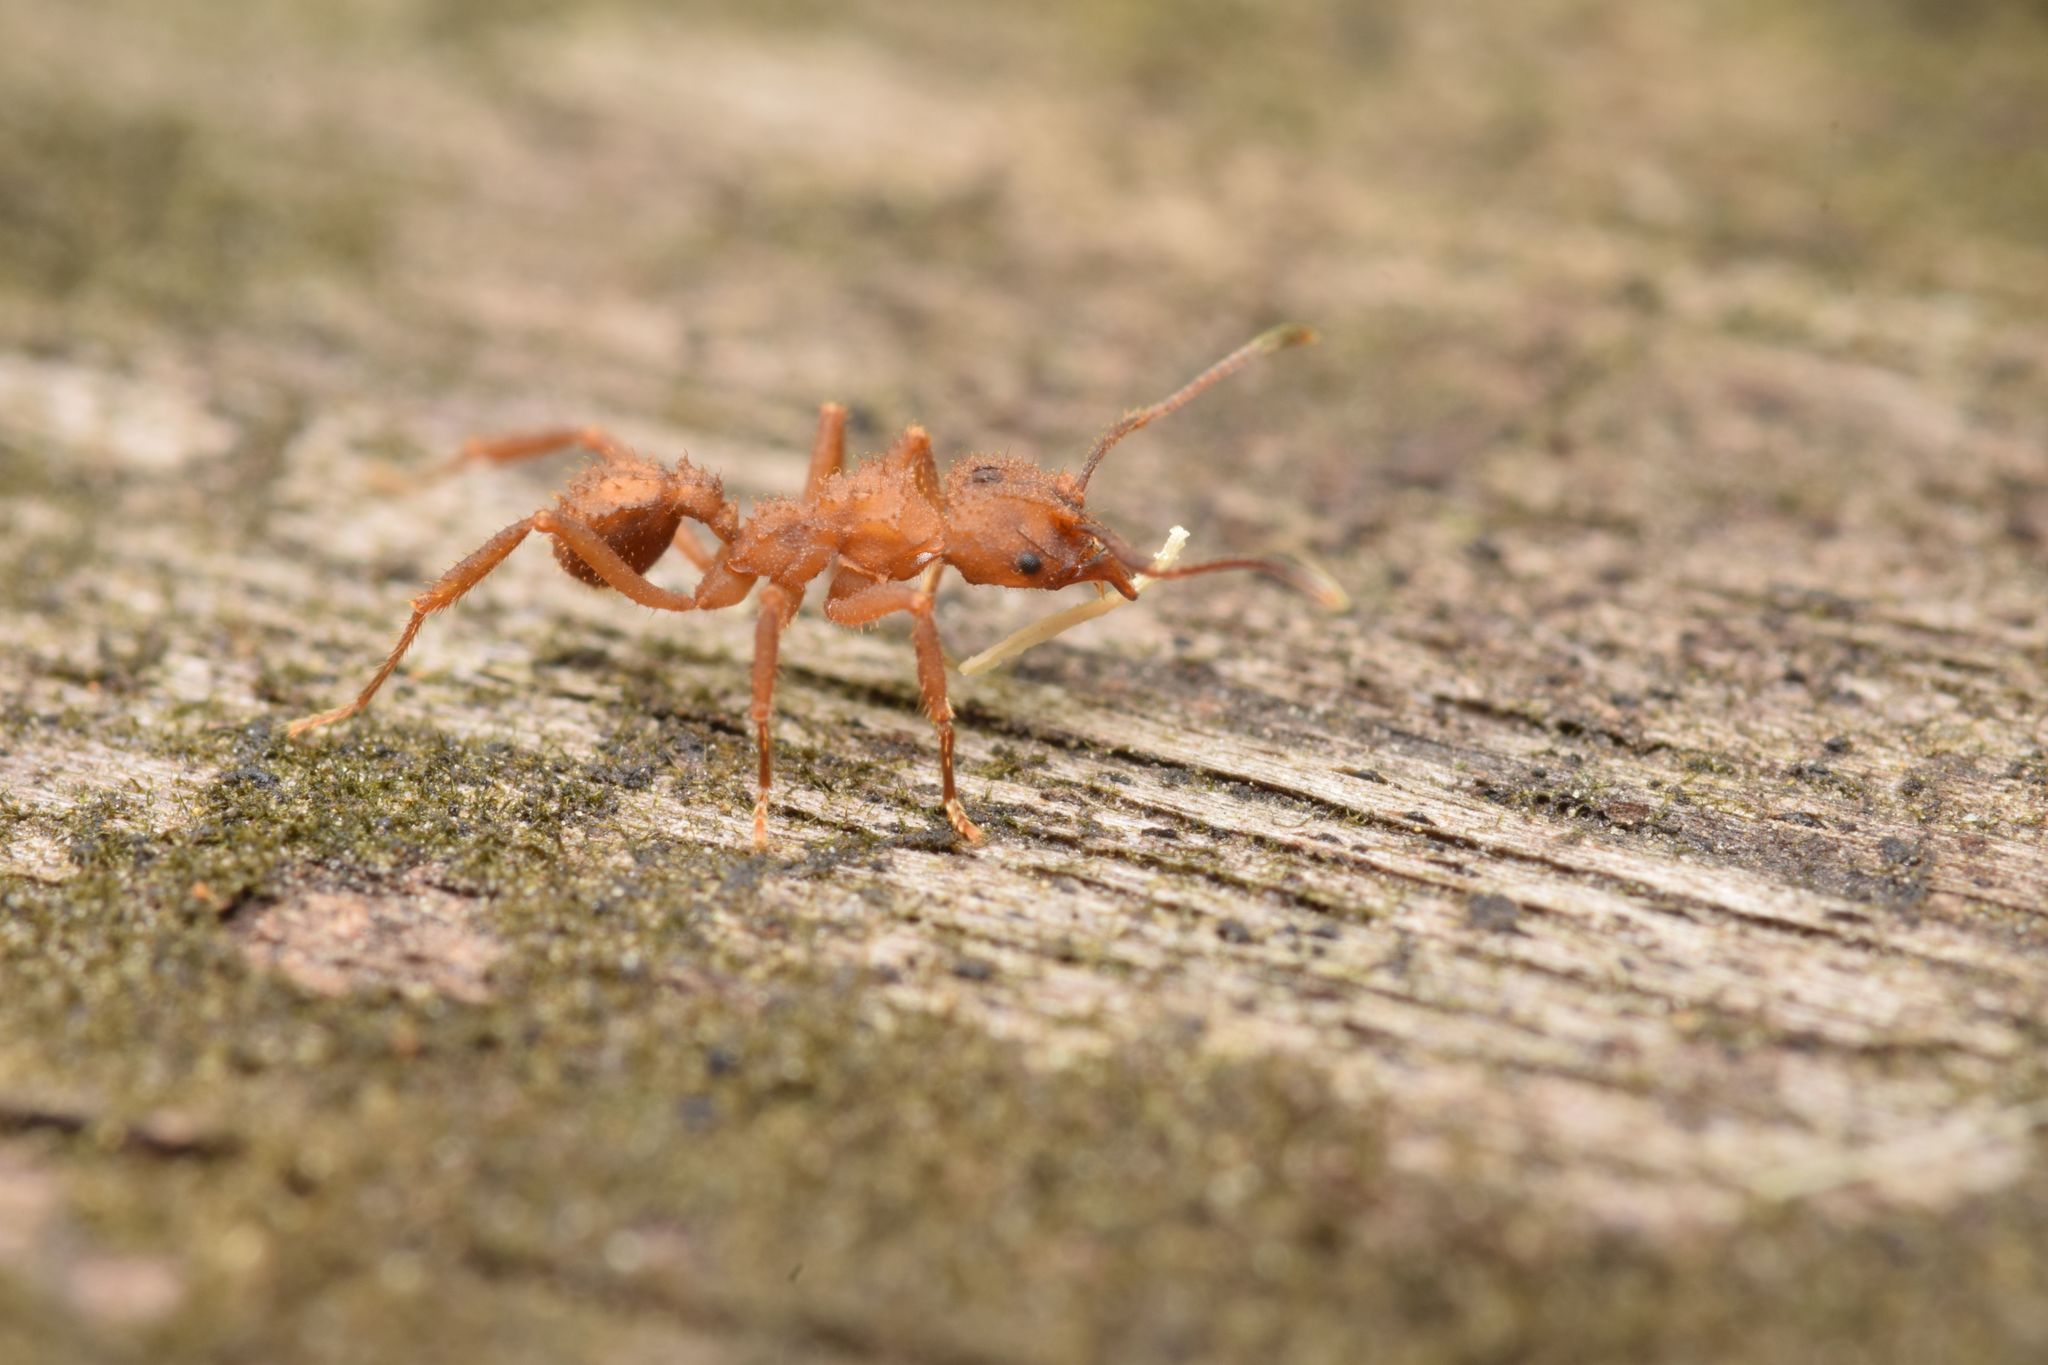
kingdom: Animalia
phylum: Arthropoda
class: Insecta
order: Hymenoptera
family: Formicidae
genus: Trachymyrmex
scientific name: Trachymyrmex cornetzi
